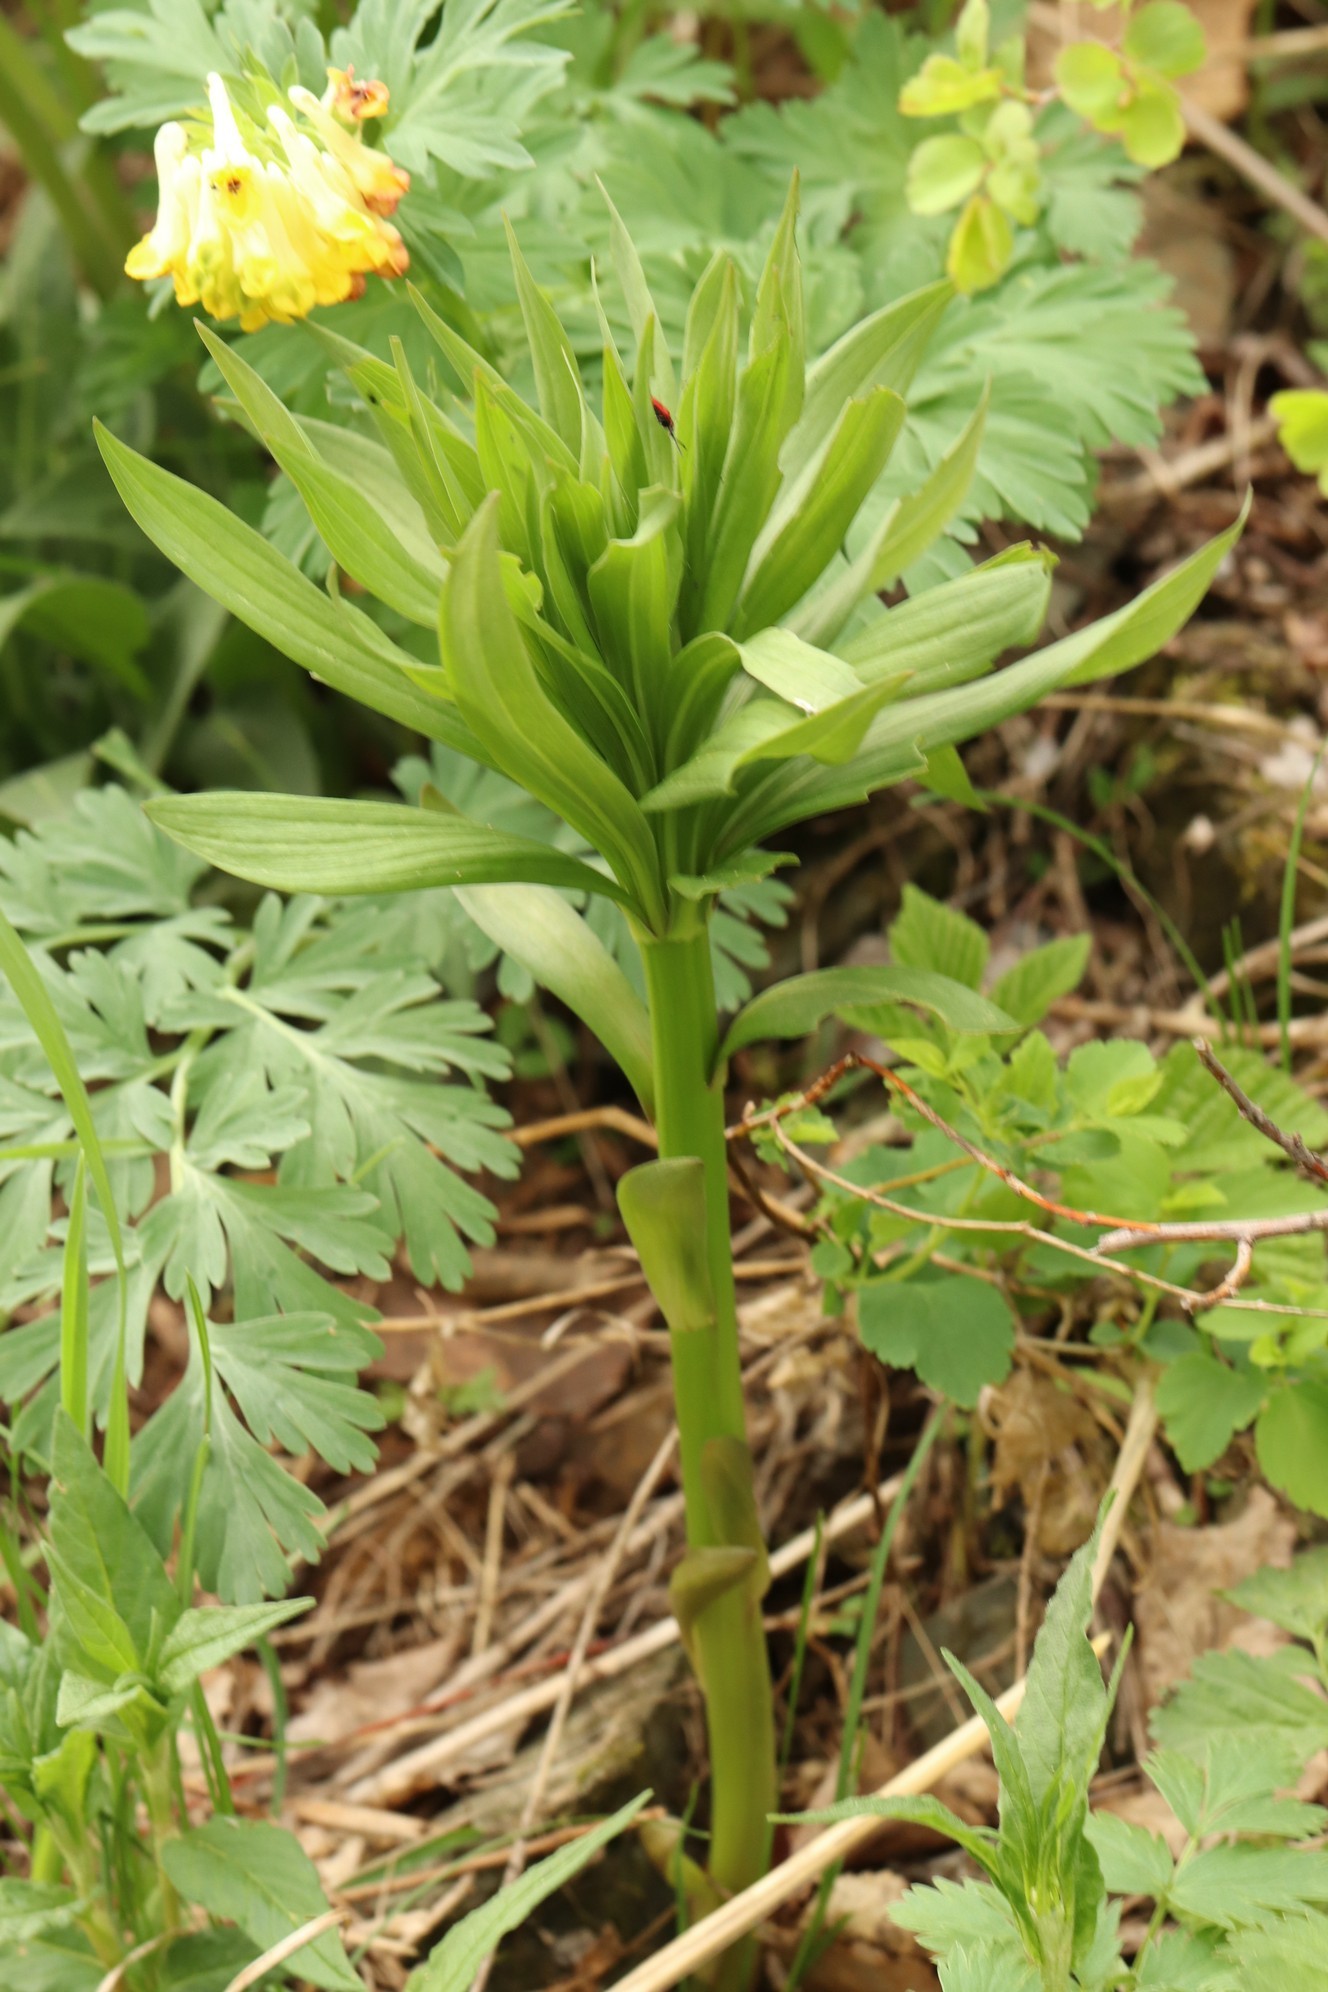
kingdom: Plantae
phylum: Tracheophyta
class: Liliopsida
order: Liliales
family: Liliaceae
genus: Lilium
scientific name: Lilium martagon
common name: Martagon lily
